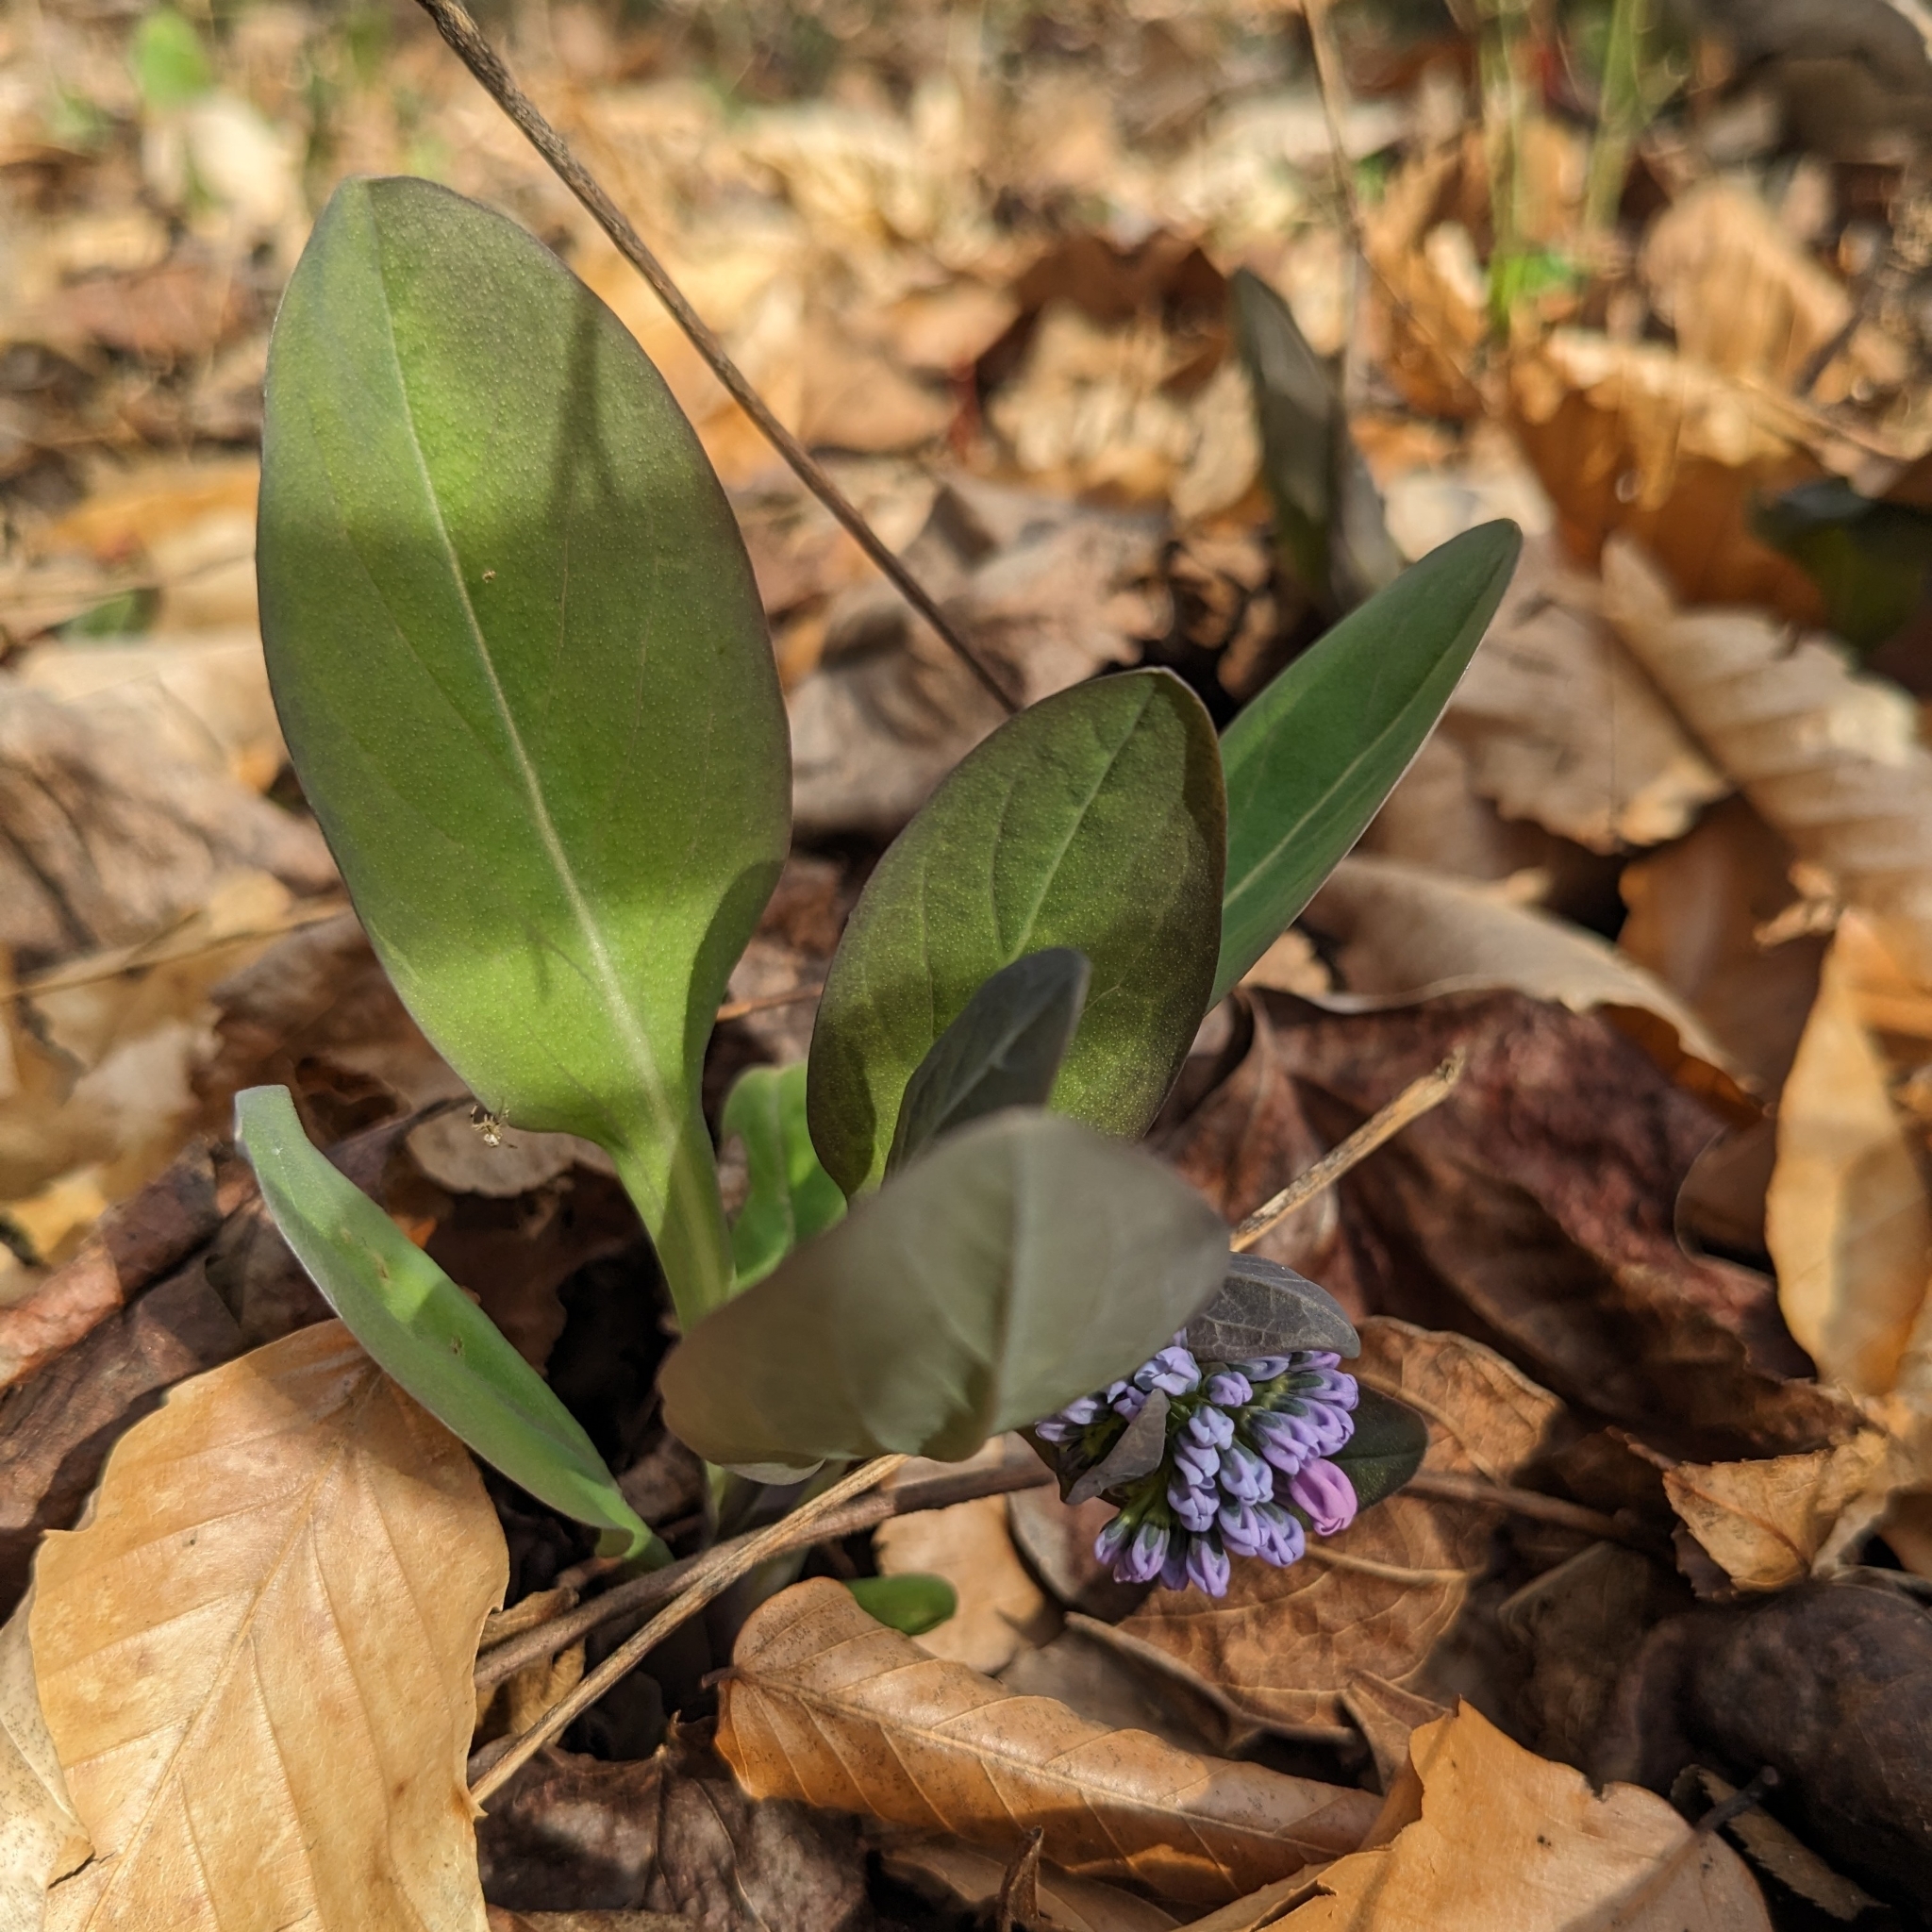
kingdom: Plantae
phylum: Tracheophyta
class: Magnoliopsida
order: Boraginales
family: Boraginaceae
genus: Mertensia
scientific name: Mertensia virginica
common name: Virginia bluebells
